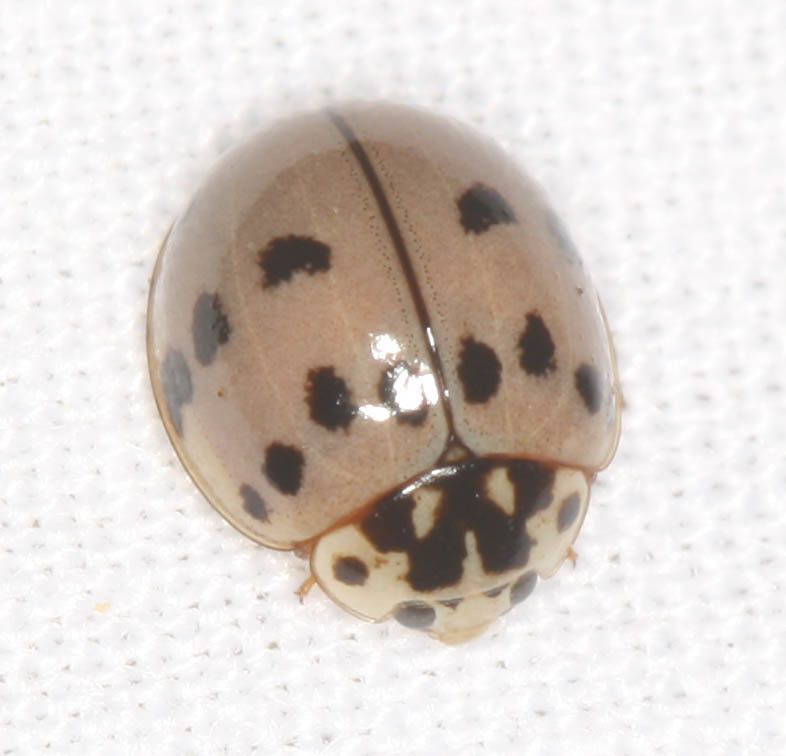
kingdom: Animalia
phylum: Arthropoda
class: Insecta
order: Coleoptera
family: Coccinellidae
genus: Olla
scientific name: Olla v-nigrum
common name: Ashy gray lady beetle
